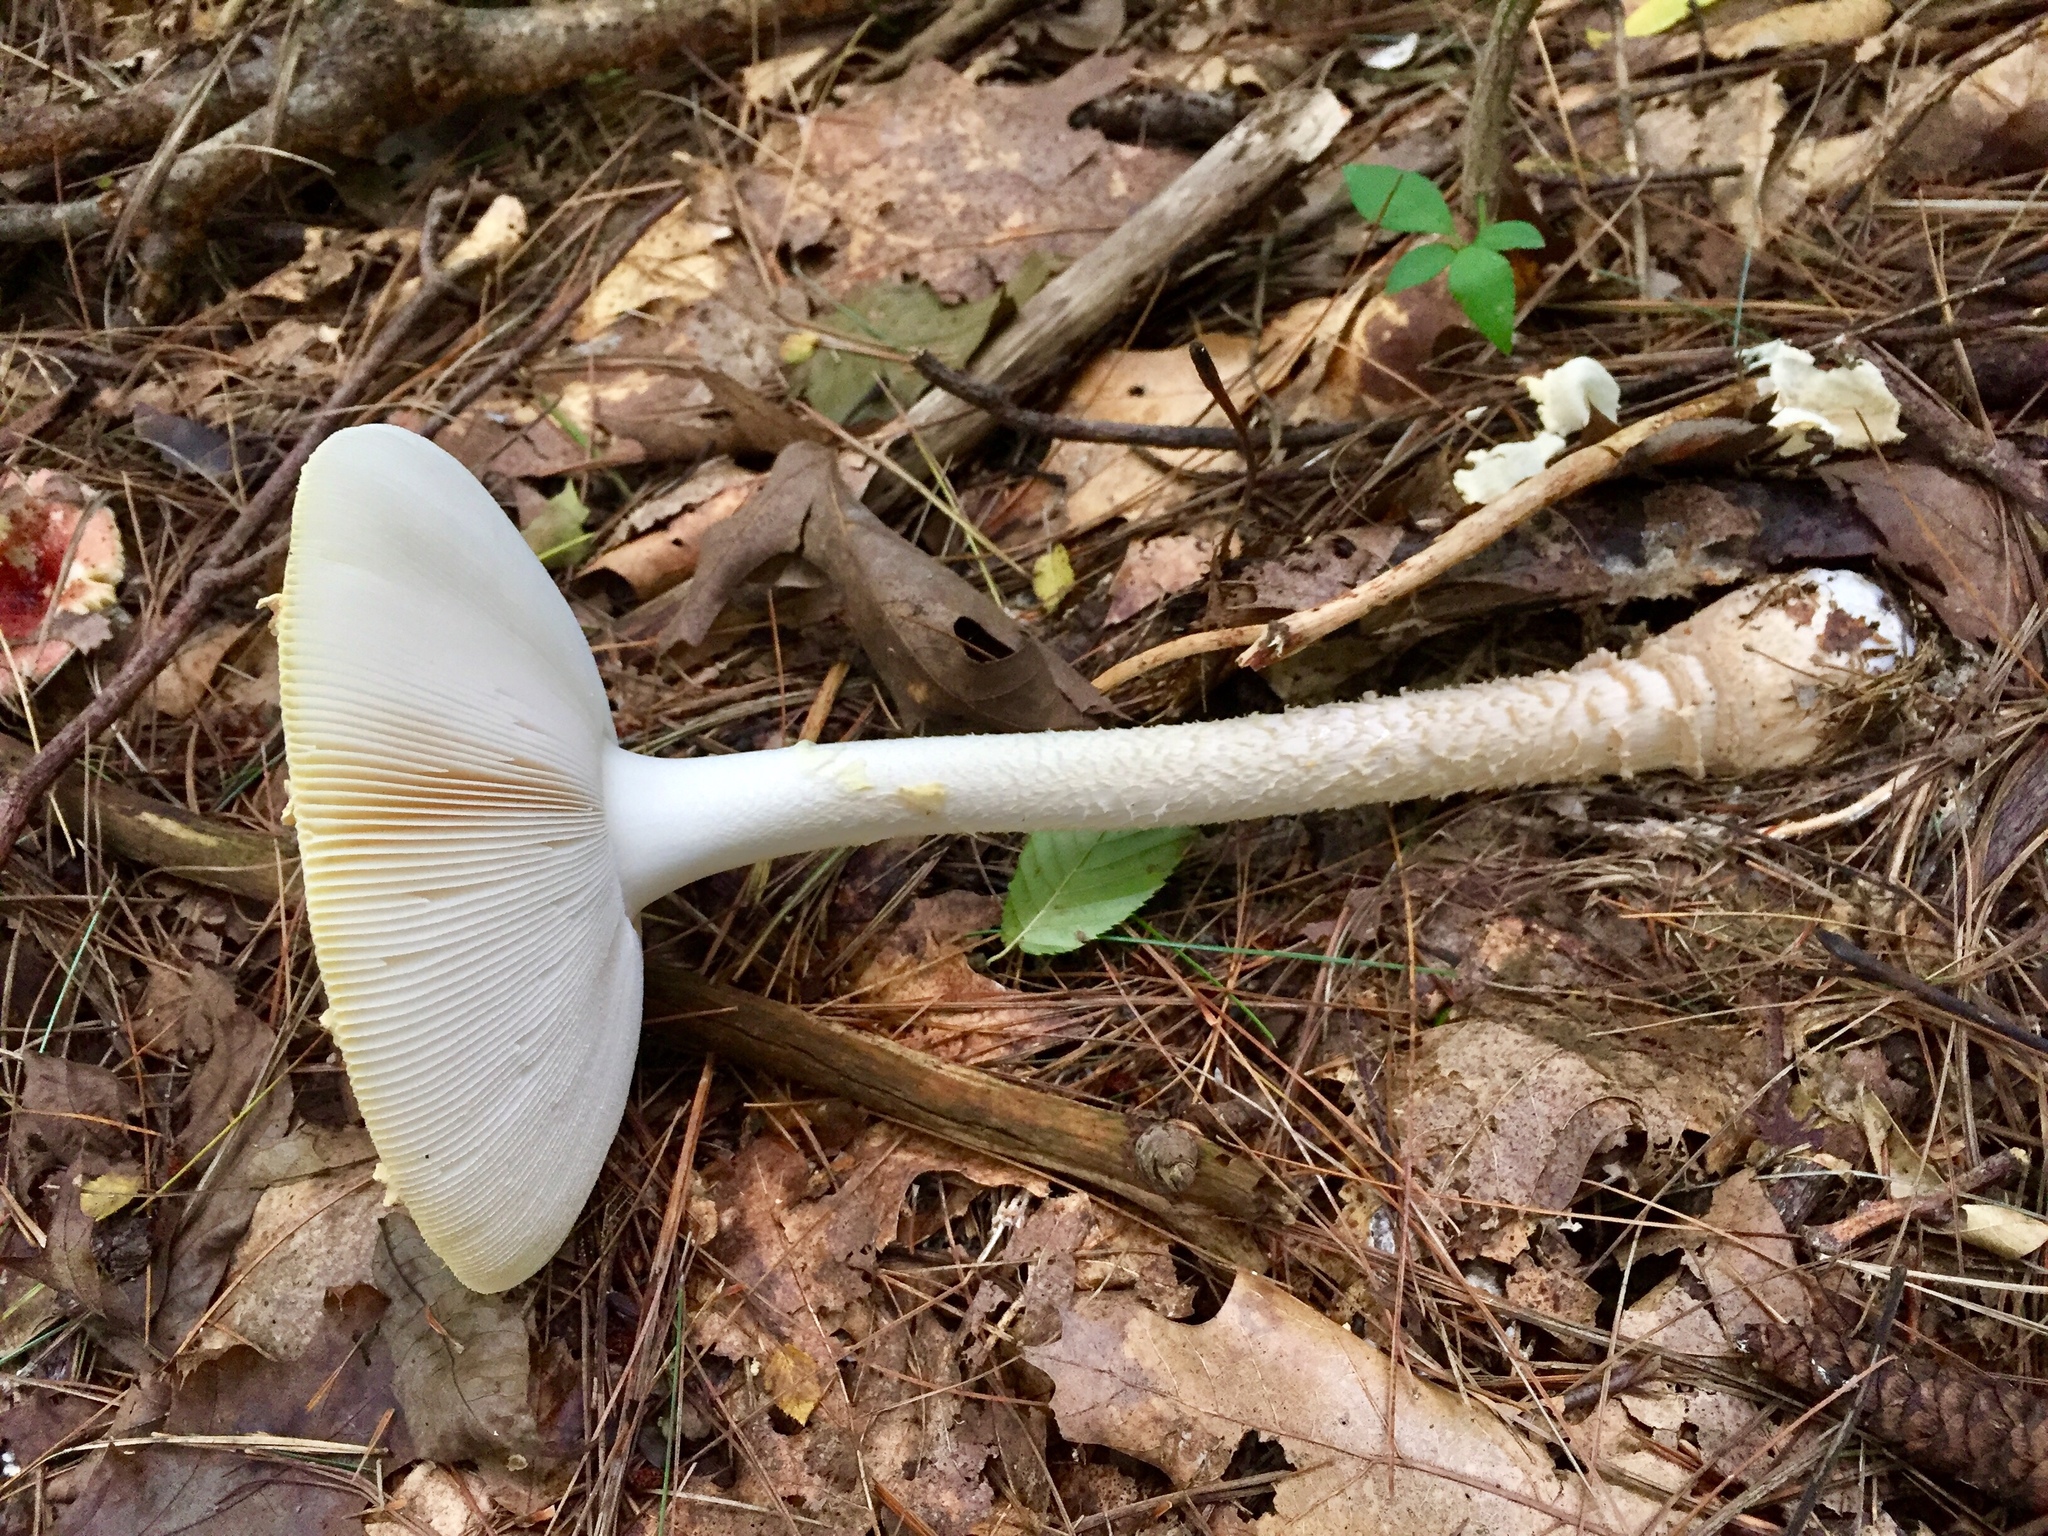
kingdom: Fungi
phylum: Basidiomycota
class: Agaricomycetes
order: Agaricales
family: Amanitaceae
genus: Amanita
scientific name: Amanita muscaria
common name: Fly agaric
